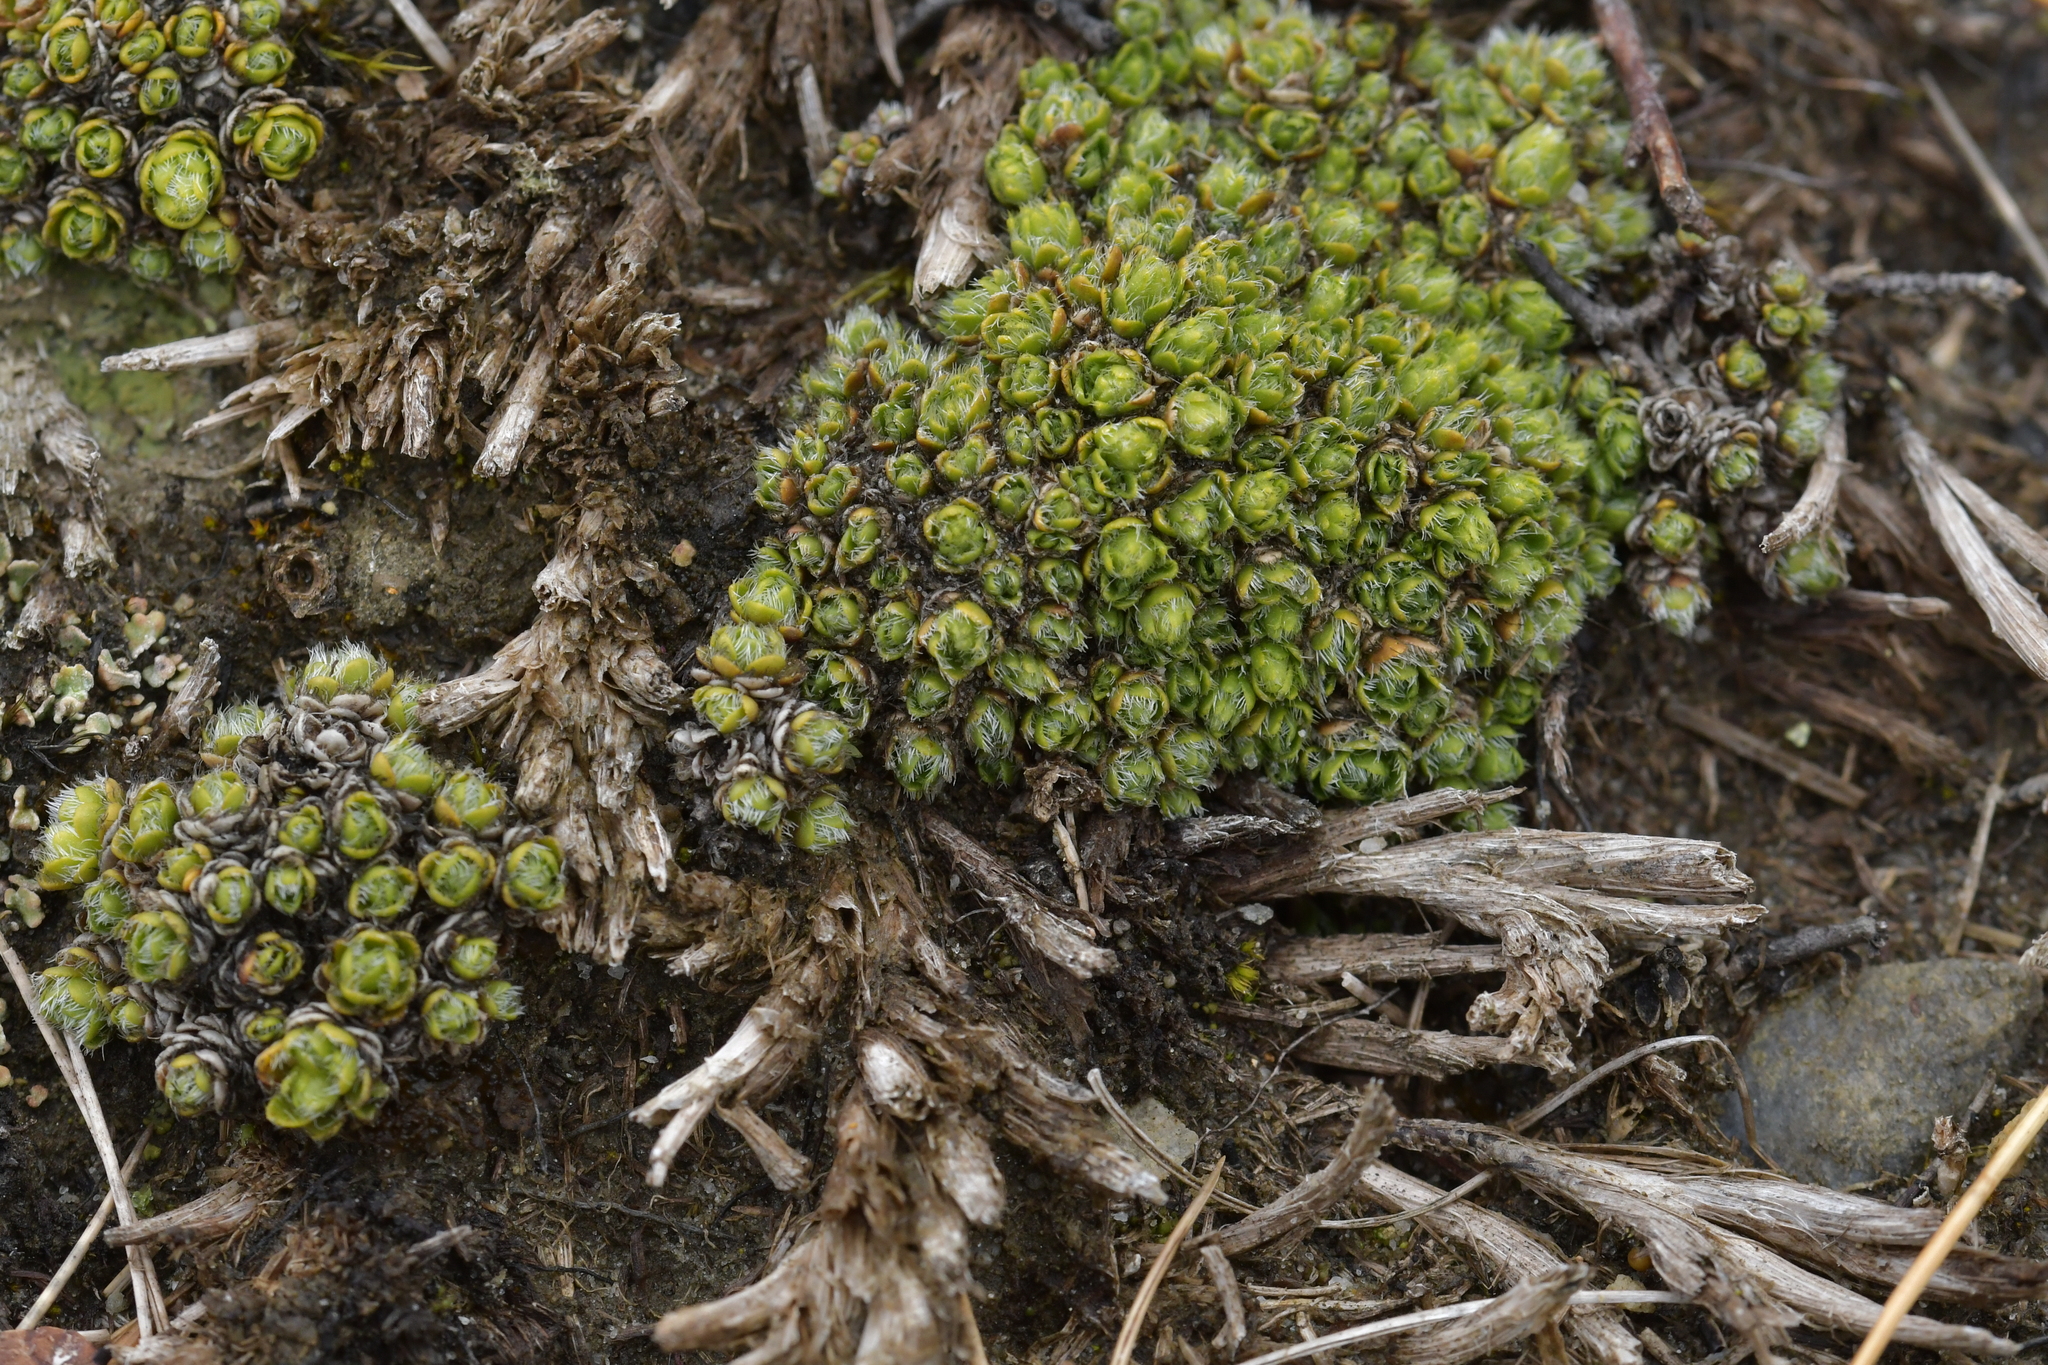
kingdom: Plantae
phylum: Tracheophyta
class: Magnoliopsida
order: Lamiales
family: Plantaginaceae
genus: Veronica
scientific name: Veronica pulvinaris
